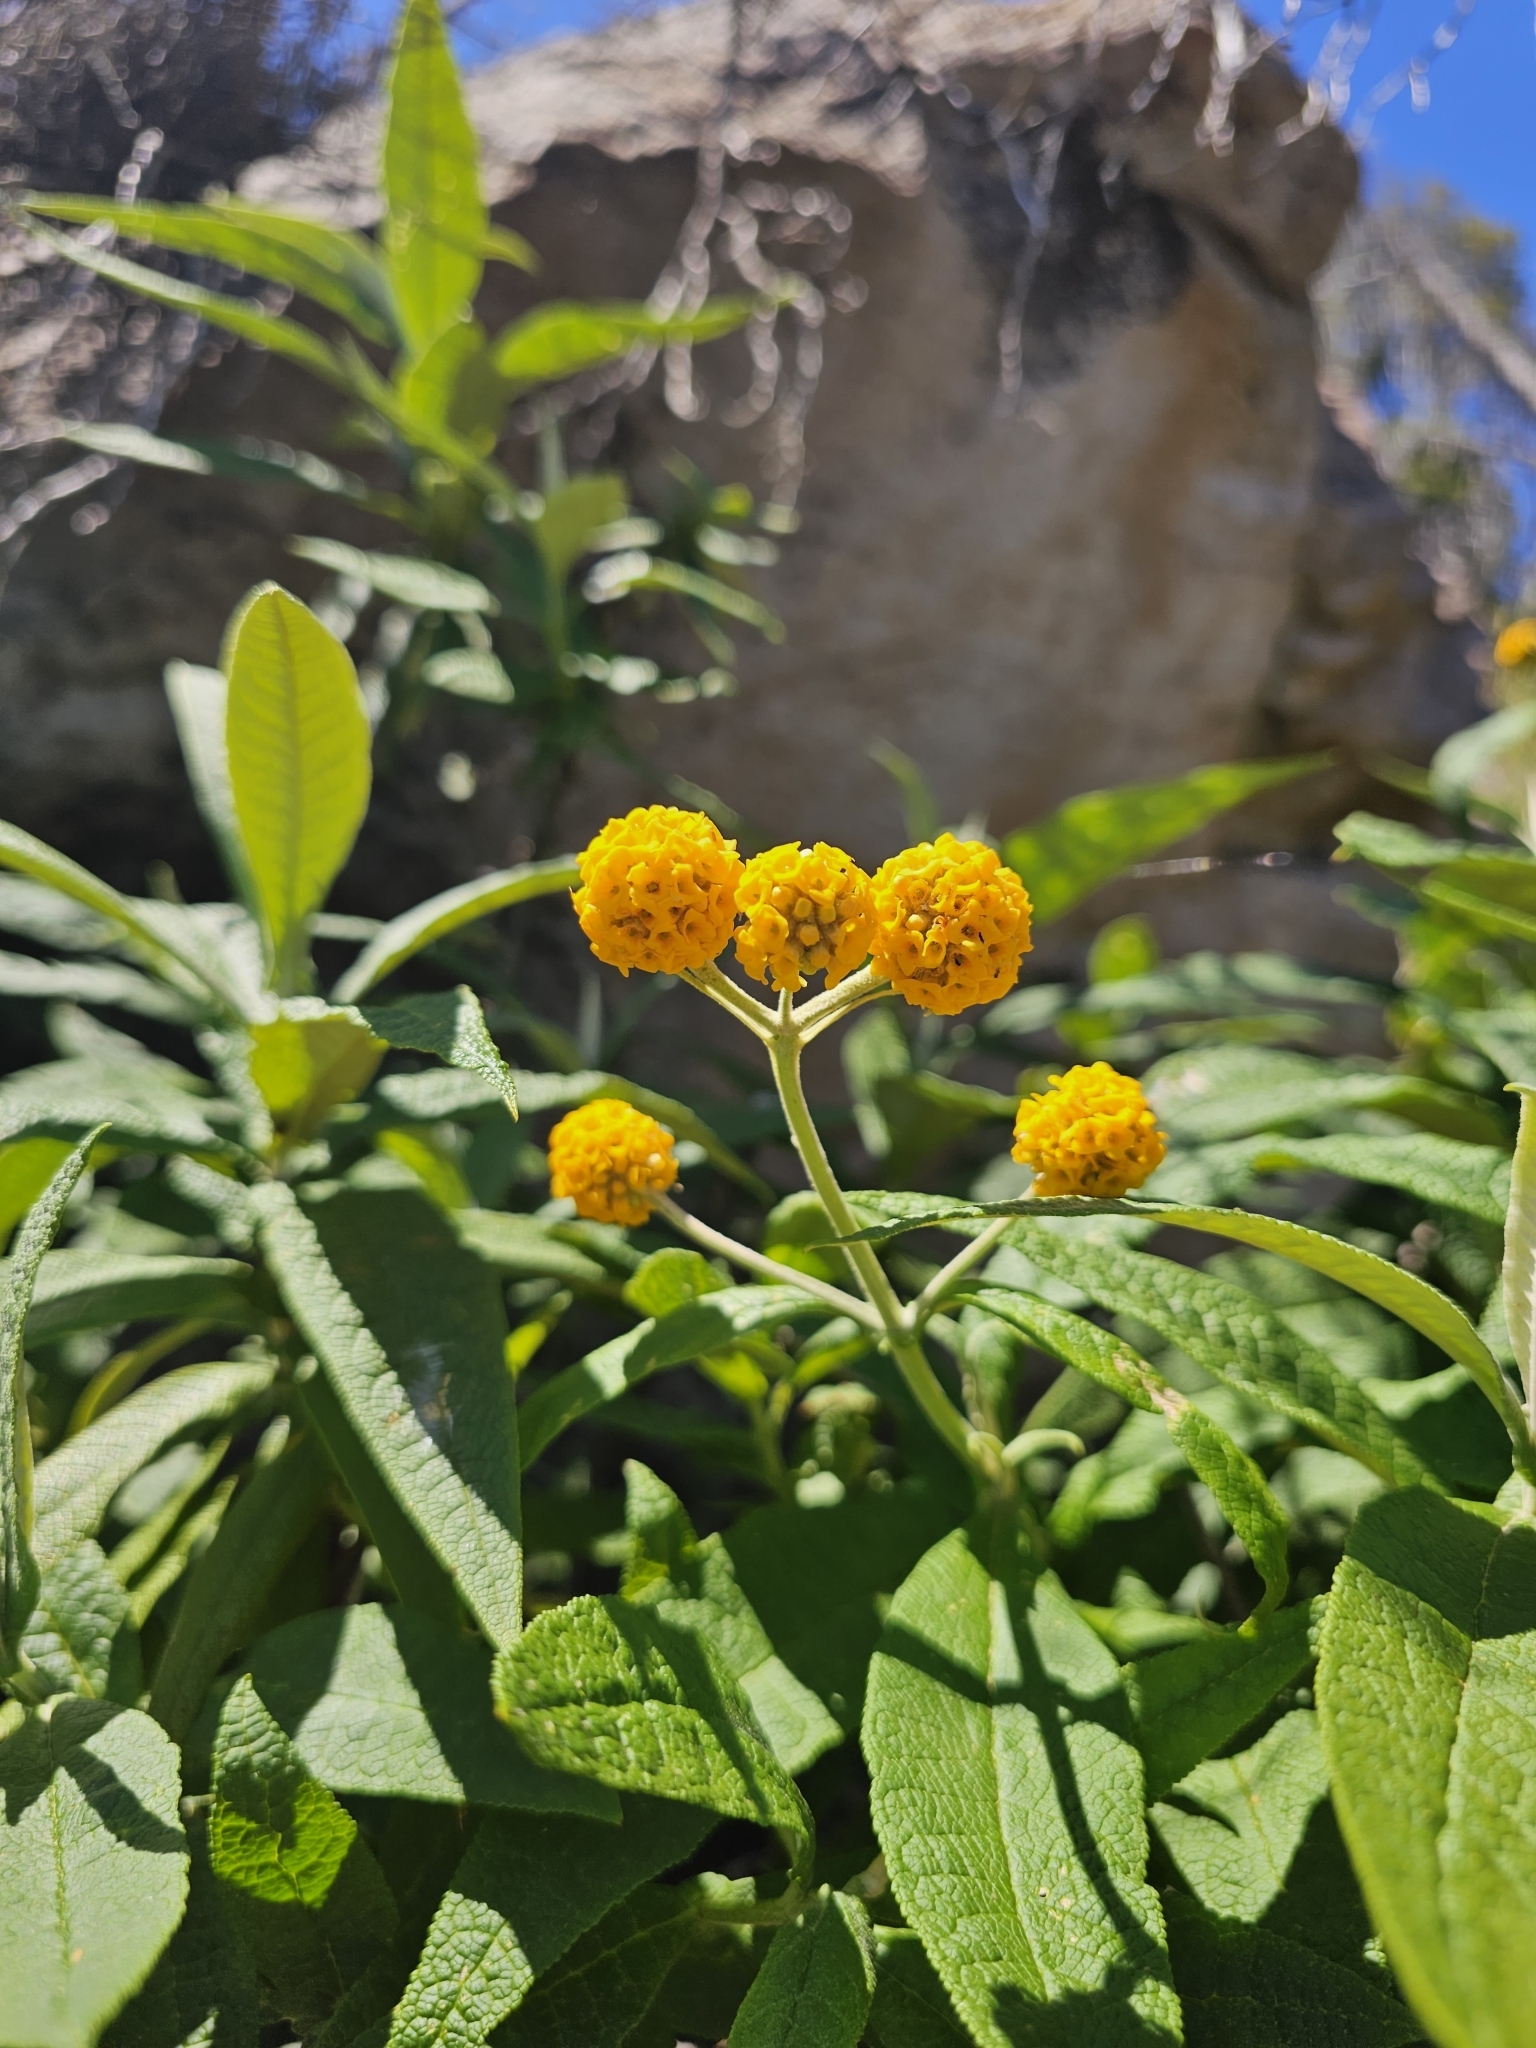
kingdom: Plantae
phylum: Tracheophyta
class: Magnoliopsida
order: Lamiales
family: Scrophulariaceae
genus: Buddleja
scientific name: Buddleja globosa
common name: Orange-ball-tree
